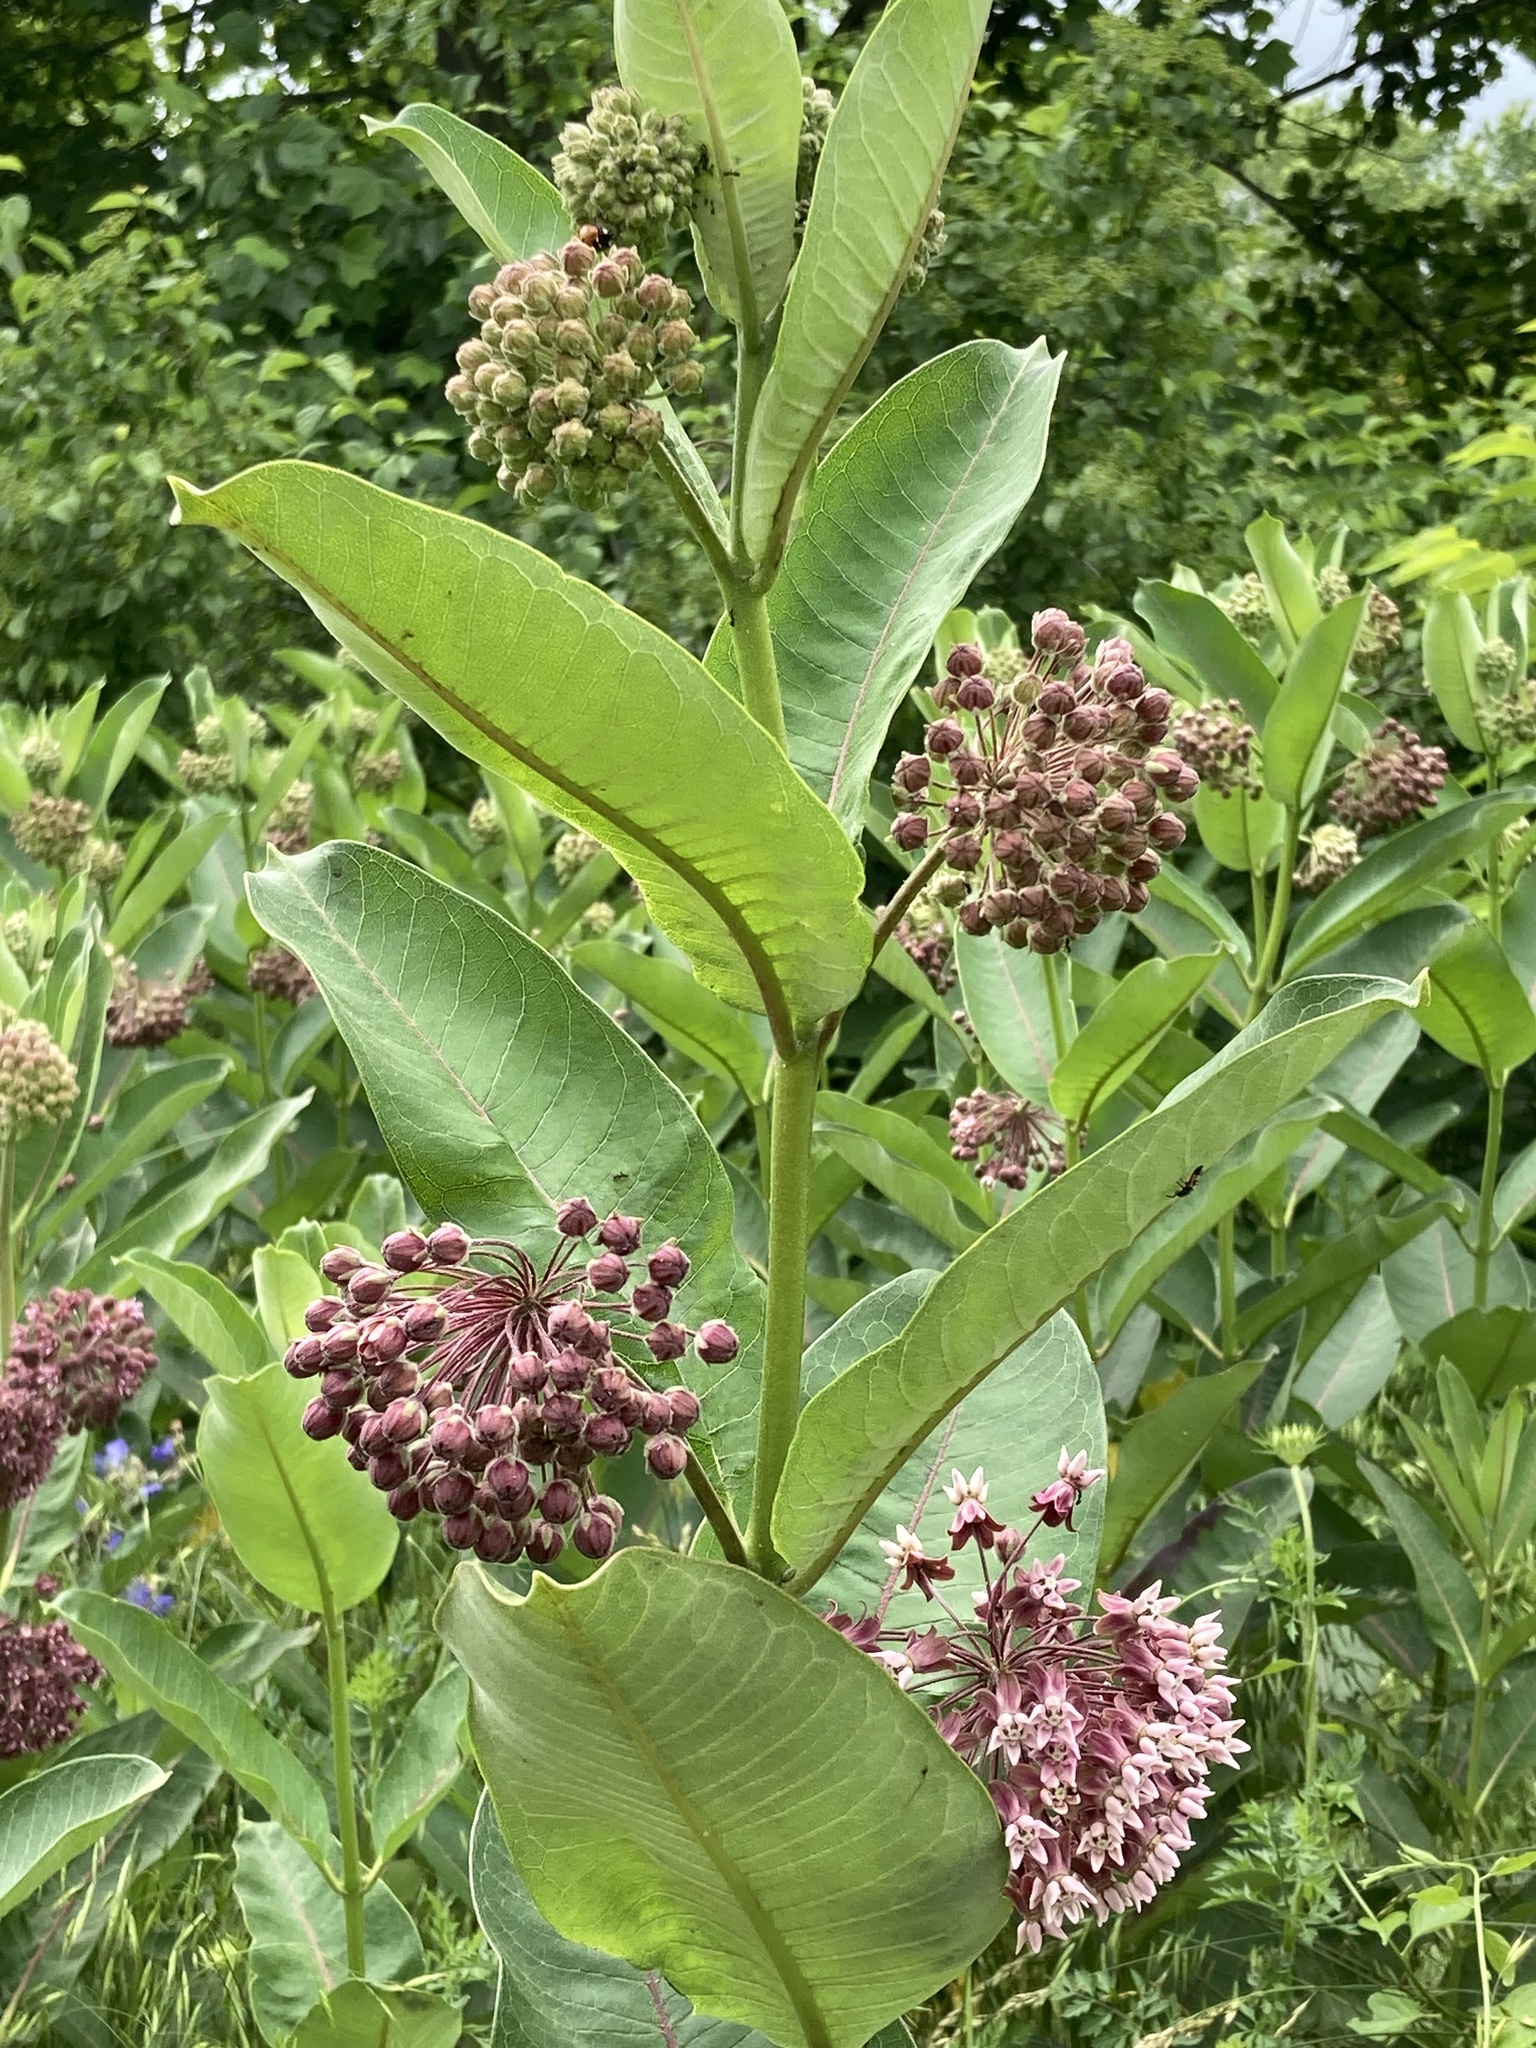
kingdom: Plantae
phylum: Tracheophyta
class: Magnoliopsida
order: Gentianales
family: Apocynaceae
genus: Asclepias
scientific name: Asclepias syriaca
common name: Common milkweed
